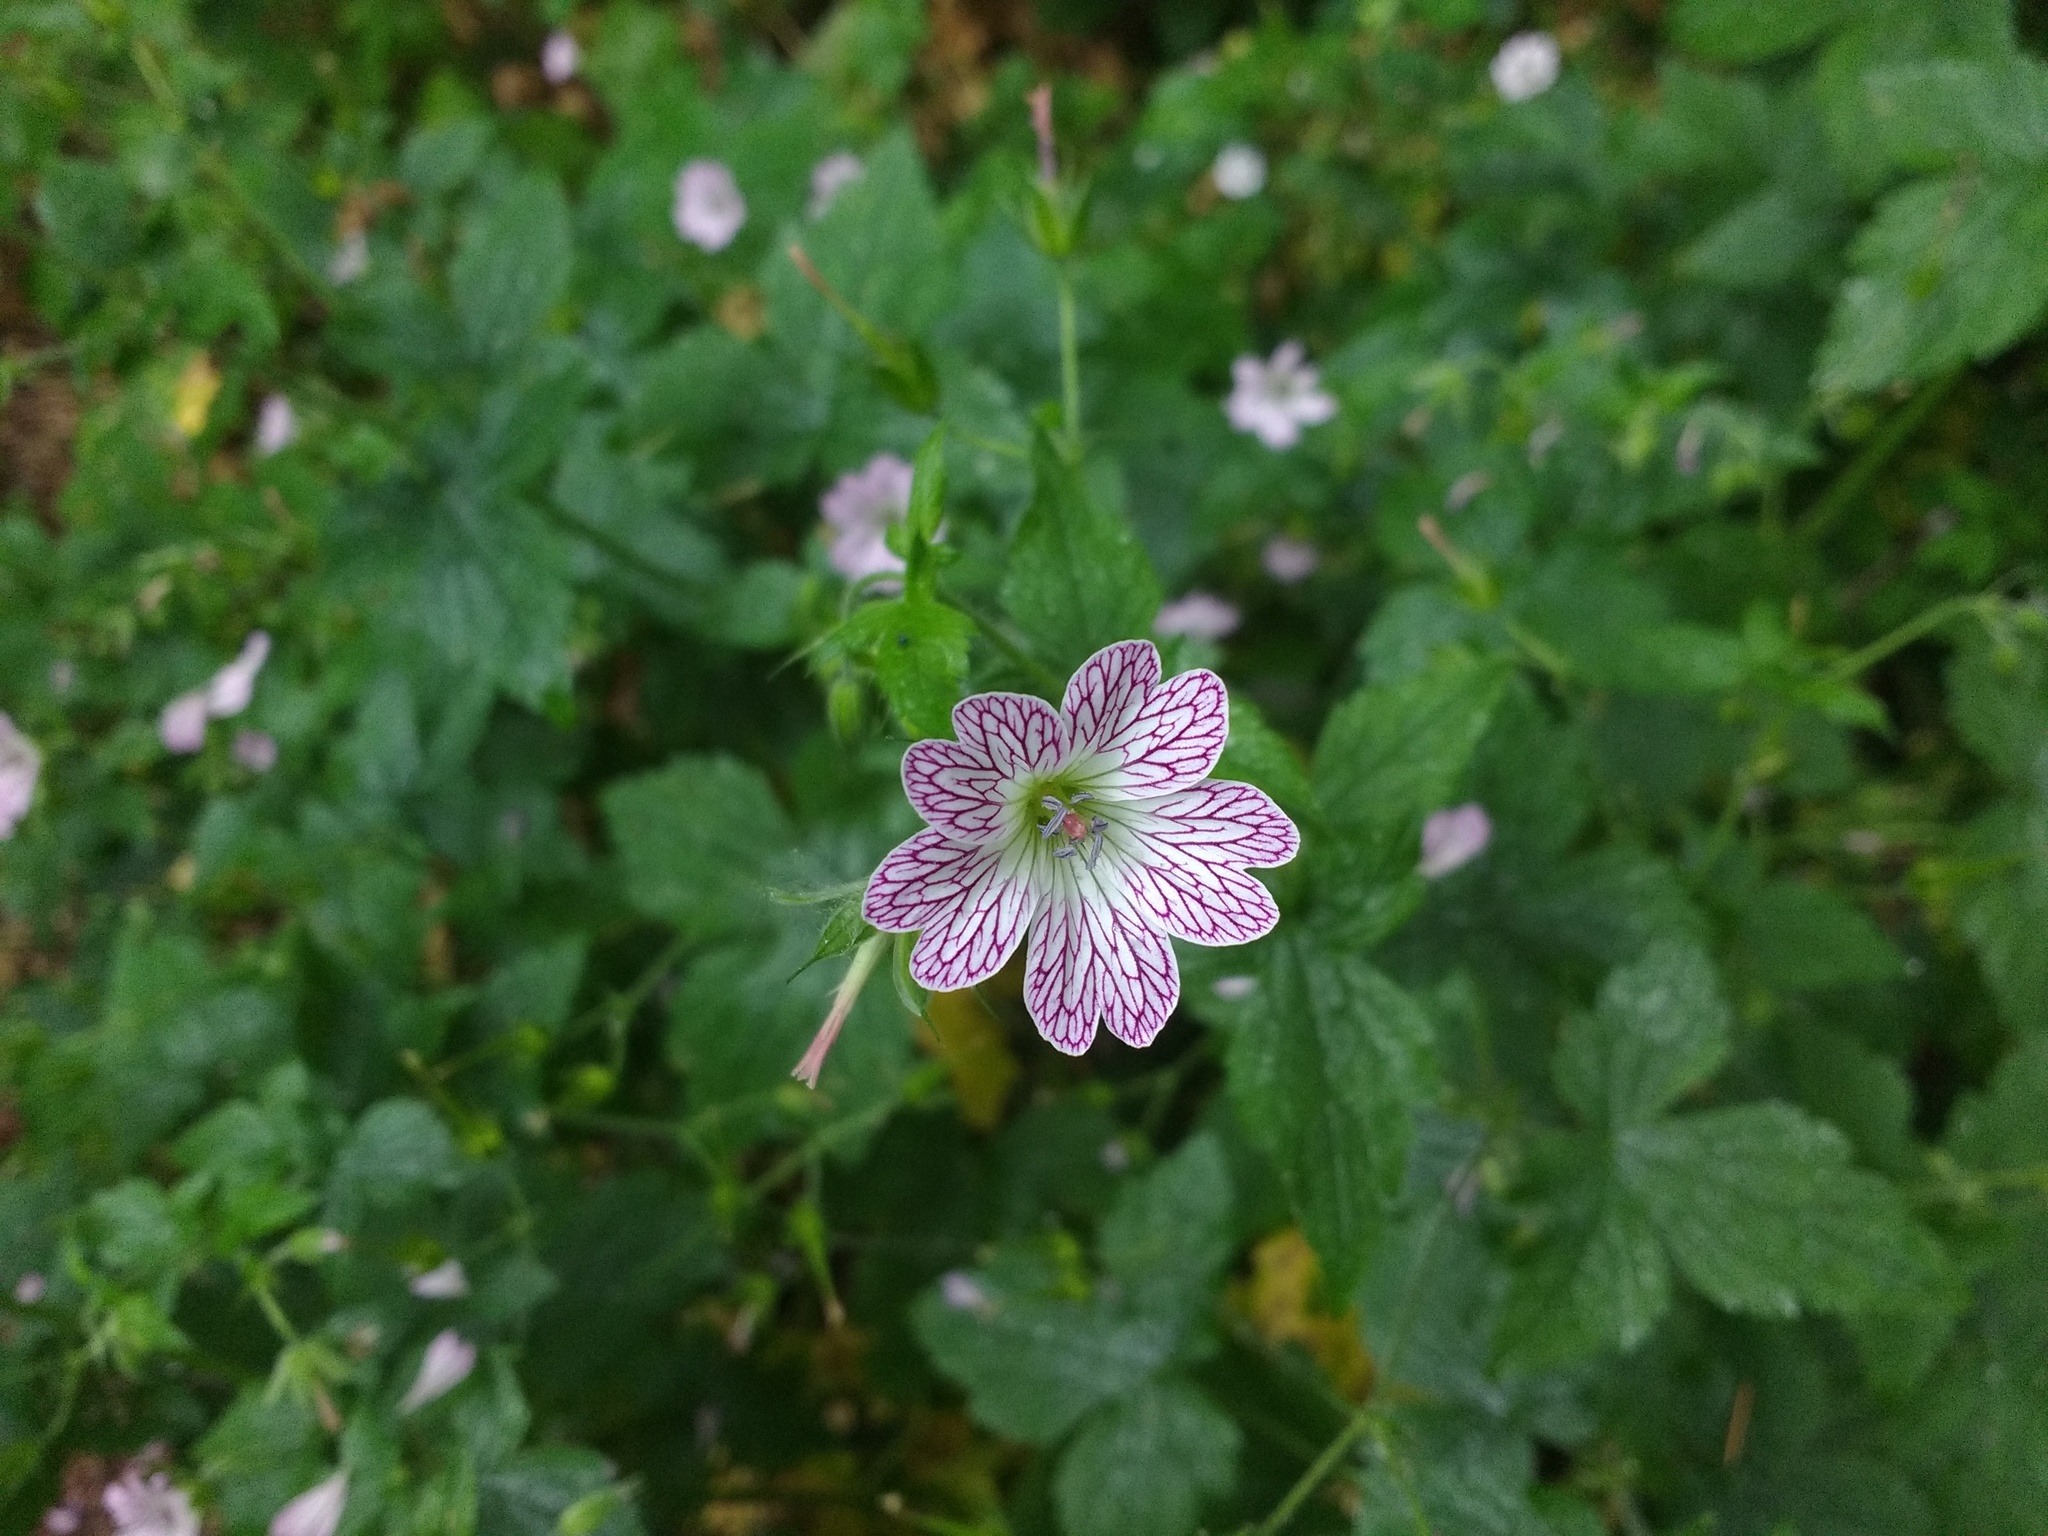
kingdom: Plantae
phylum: Tracheophyta
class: Magnoliopsida
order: Geraniales
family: Geraniaceae
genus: Geranium
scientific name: Geranium versicolor
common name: Pencilled crane's-bill
